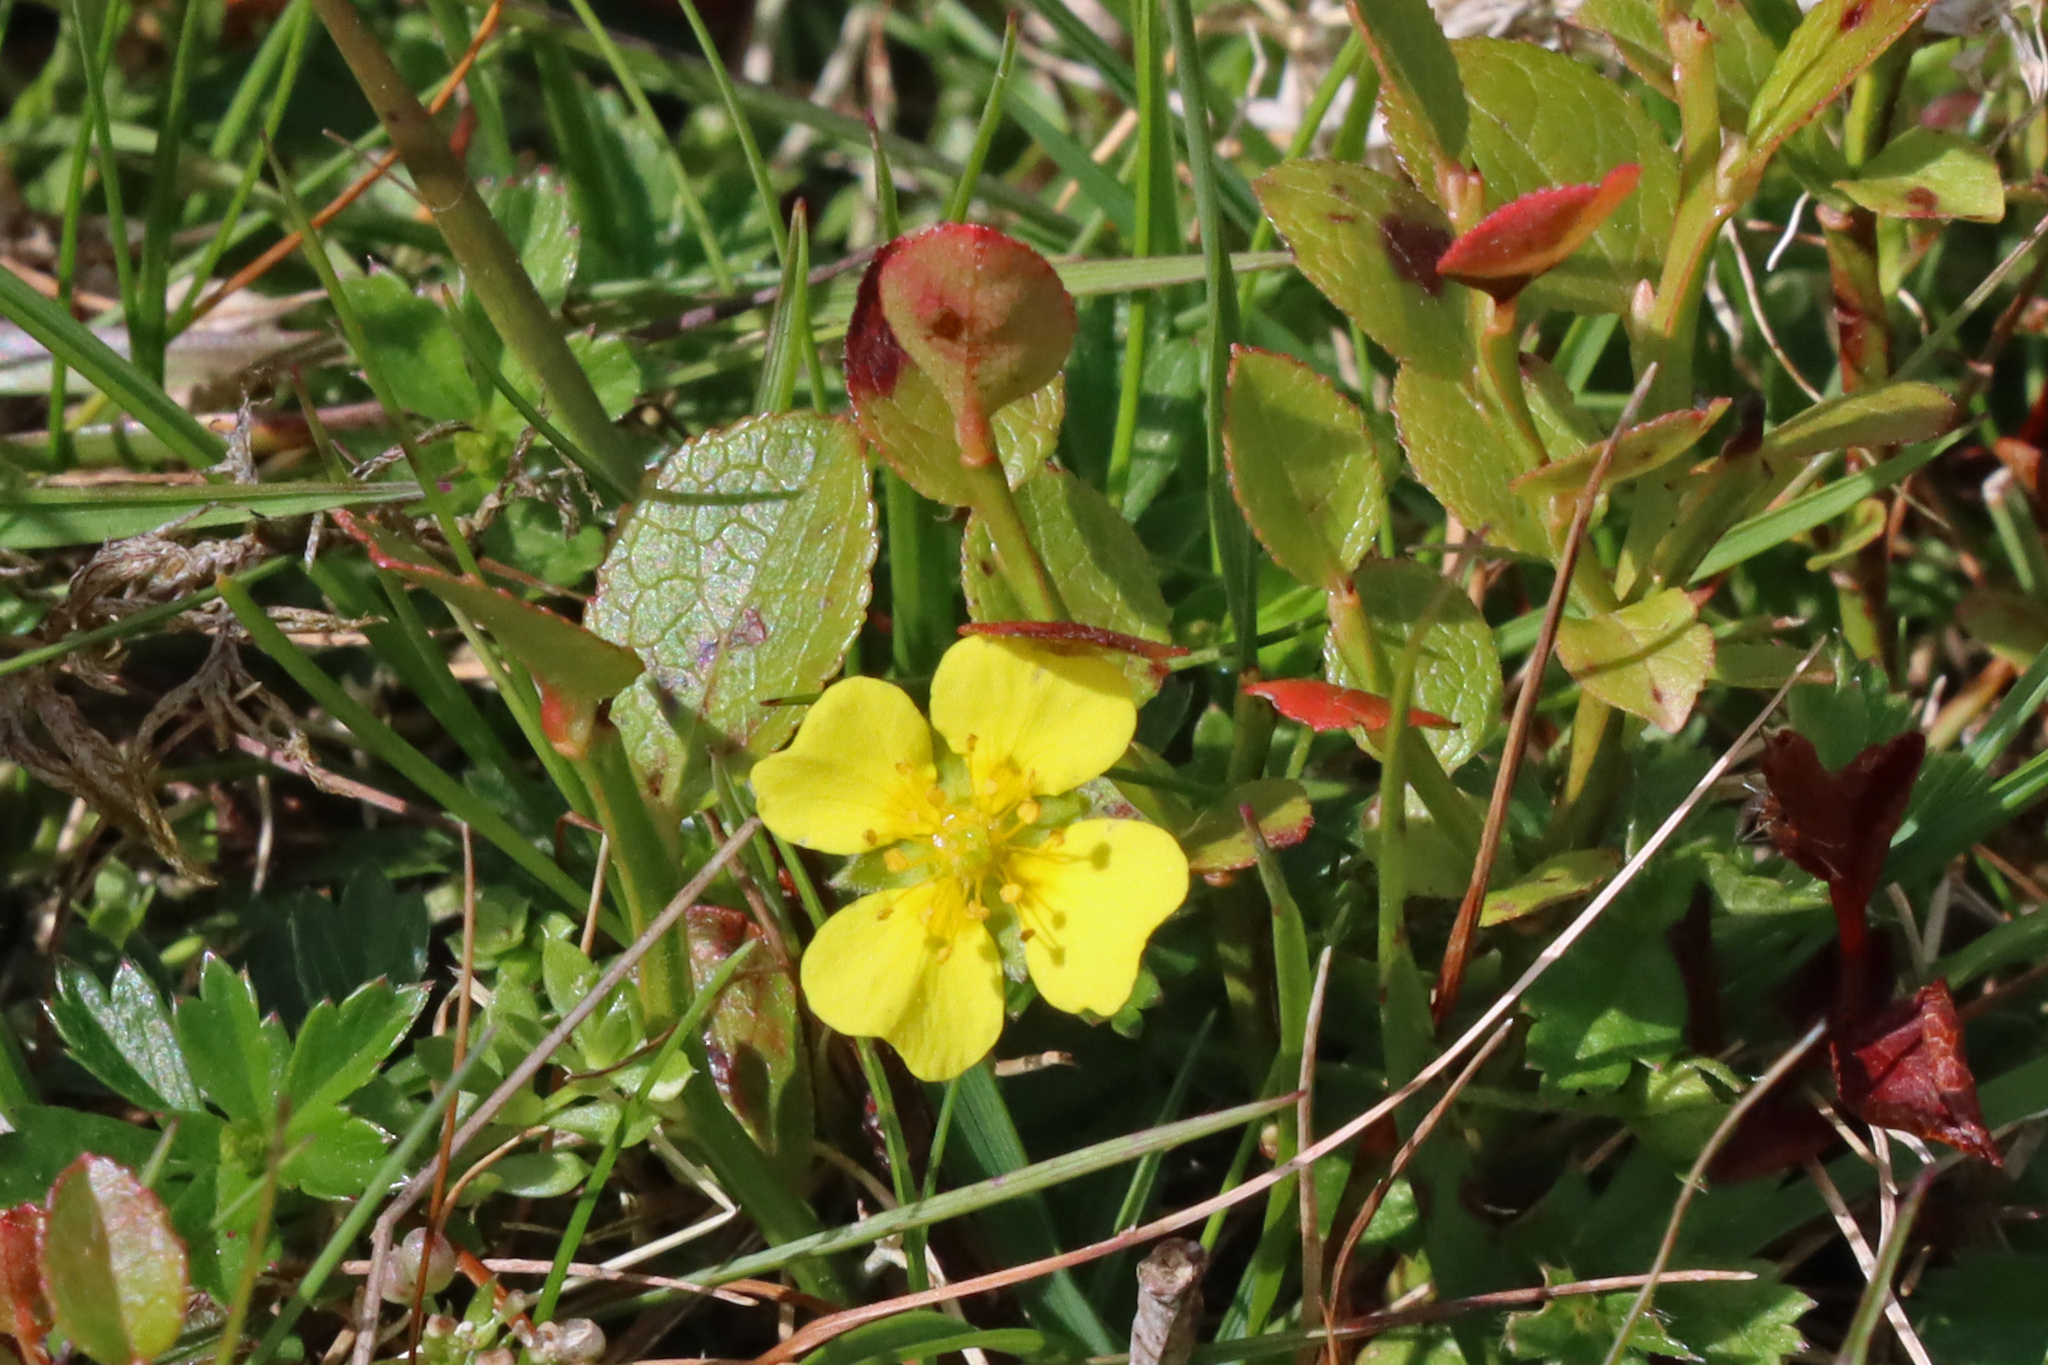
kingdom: Plantae
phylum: Tracheophyta
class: Magnoliopsida
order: Rosales
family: Rosaceae
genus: Potentilla
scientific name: Potentilla erecta
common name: Tormentil
